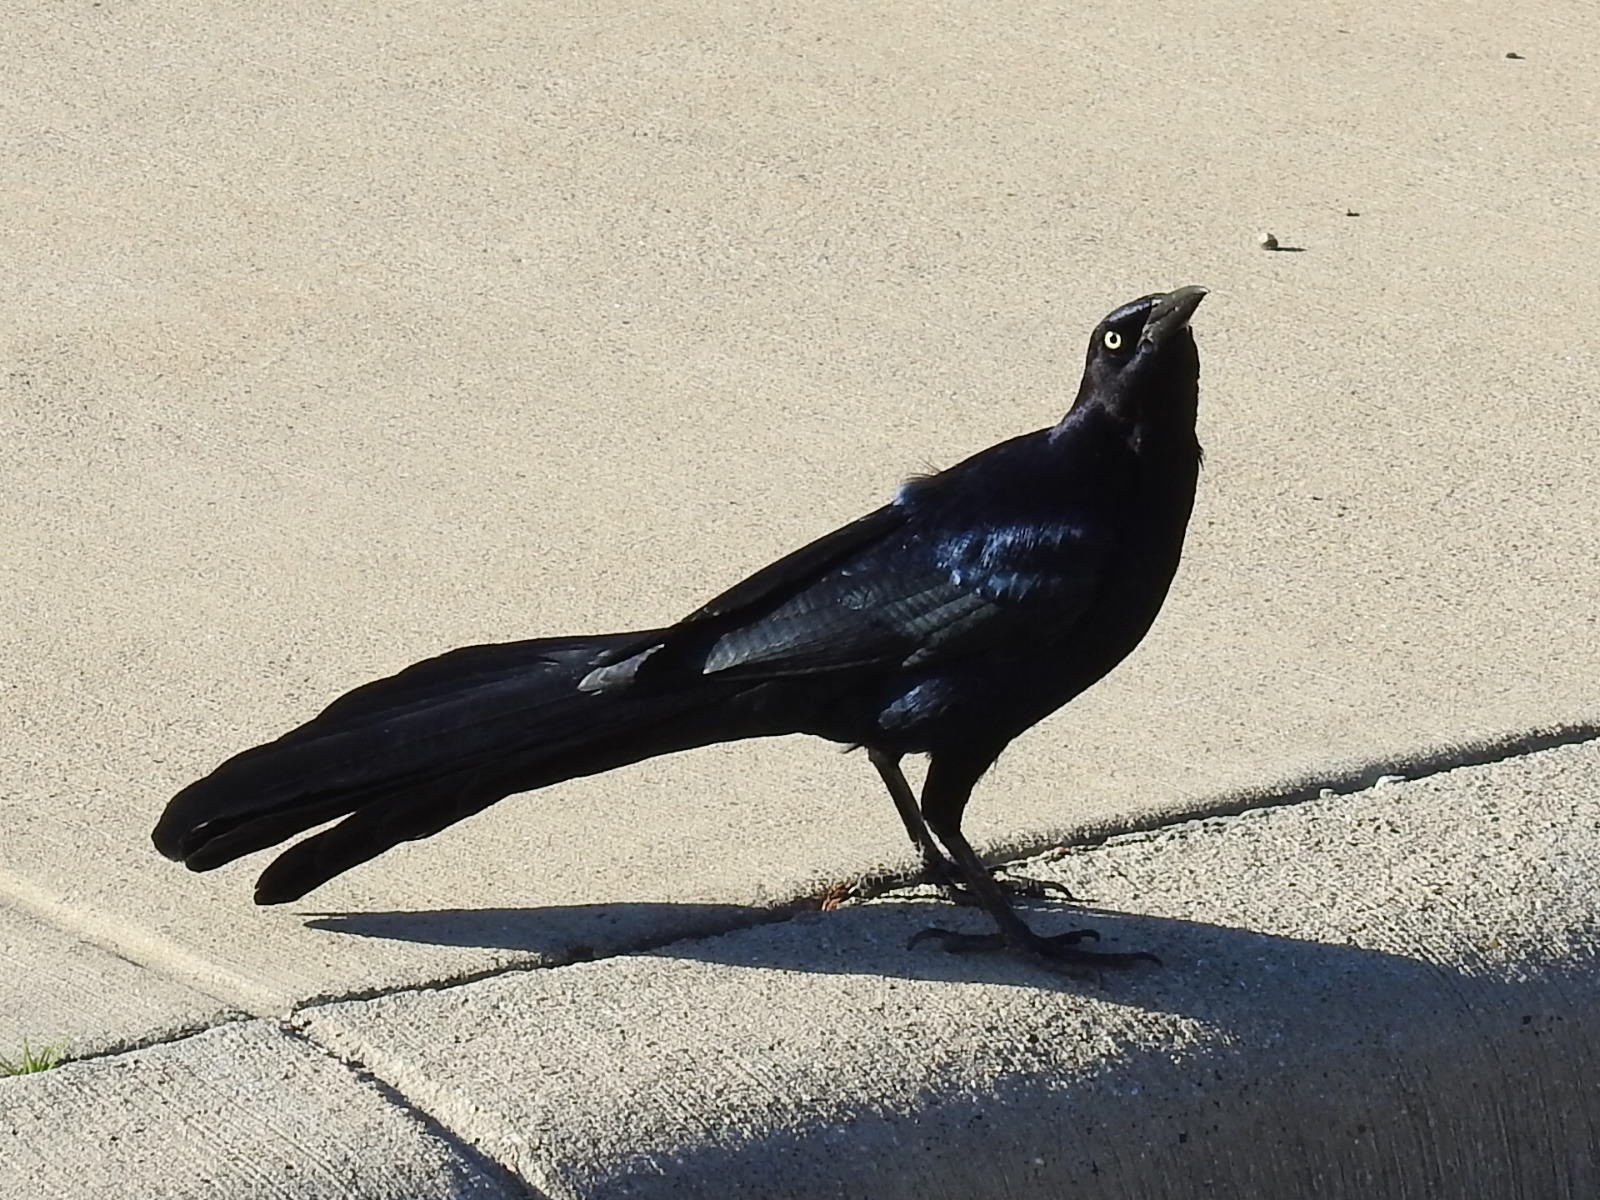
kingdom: Animalia
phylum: Chordata
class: Aves
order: Passeriformes
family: Icteridae
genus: Quiscalus
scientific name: Quiscalus mexicanus
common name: Great-tailed grackle
